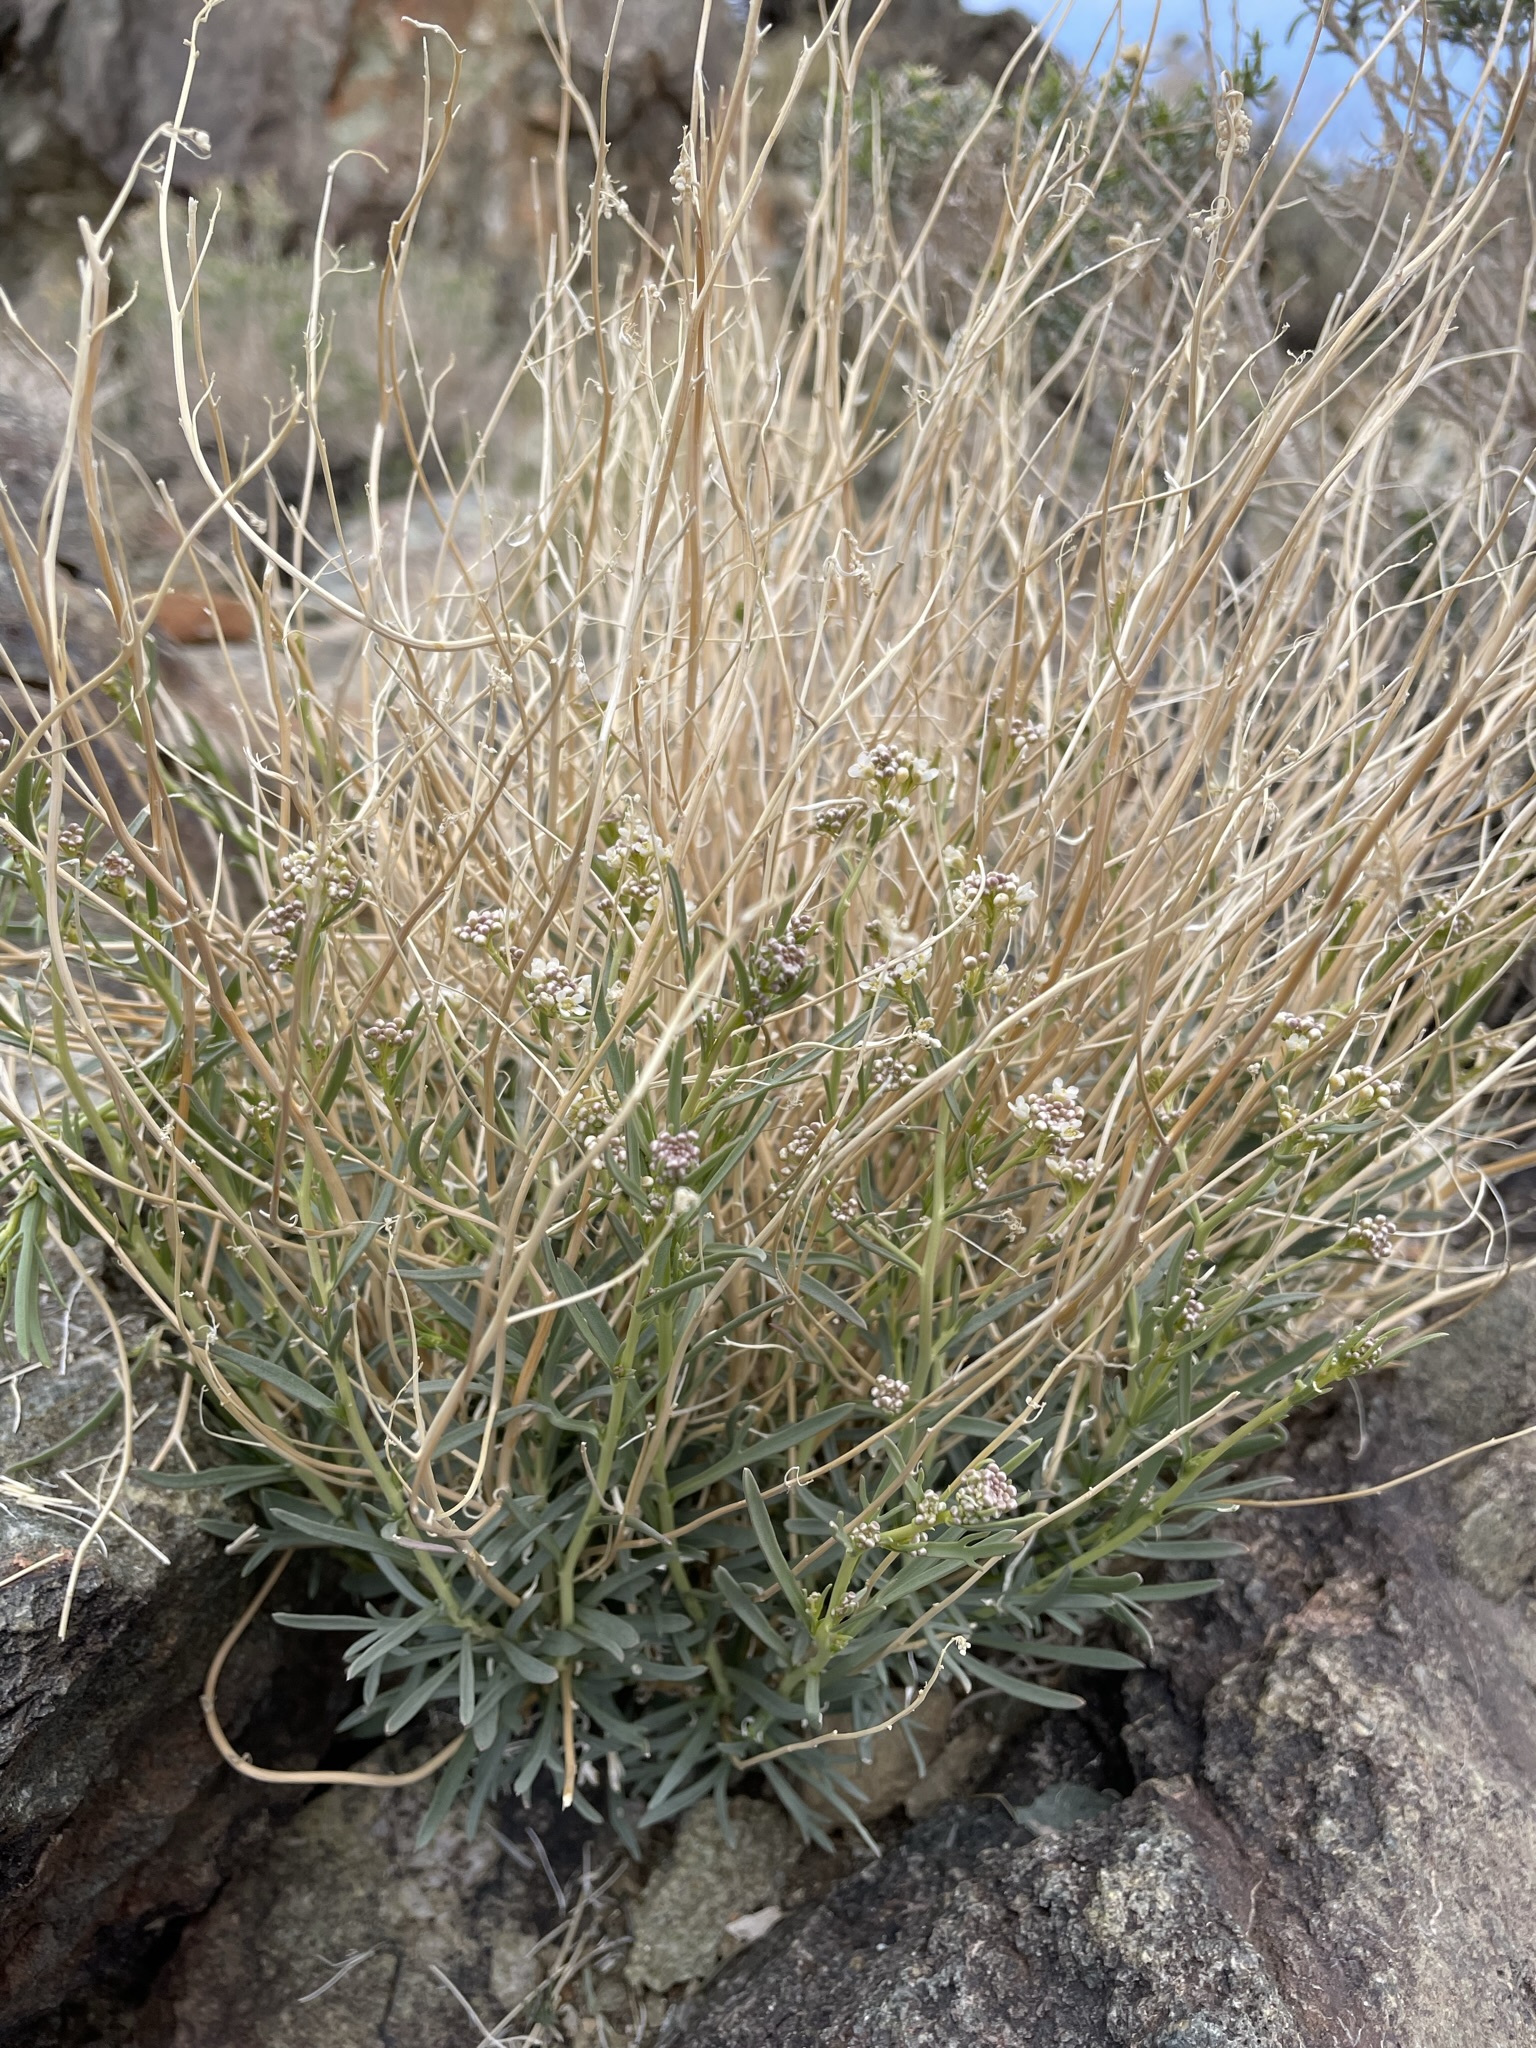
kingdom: Plantae
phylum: Tracheophyta
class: Magnoliopsida
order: Brassicales
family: Brassicaceae
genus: Lepidium
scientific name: Lepidium fremontii
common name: Fremont's pepperwort
